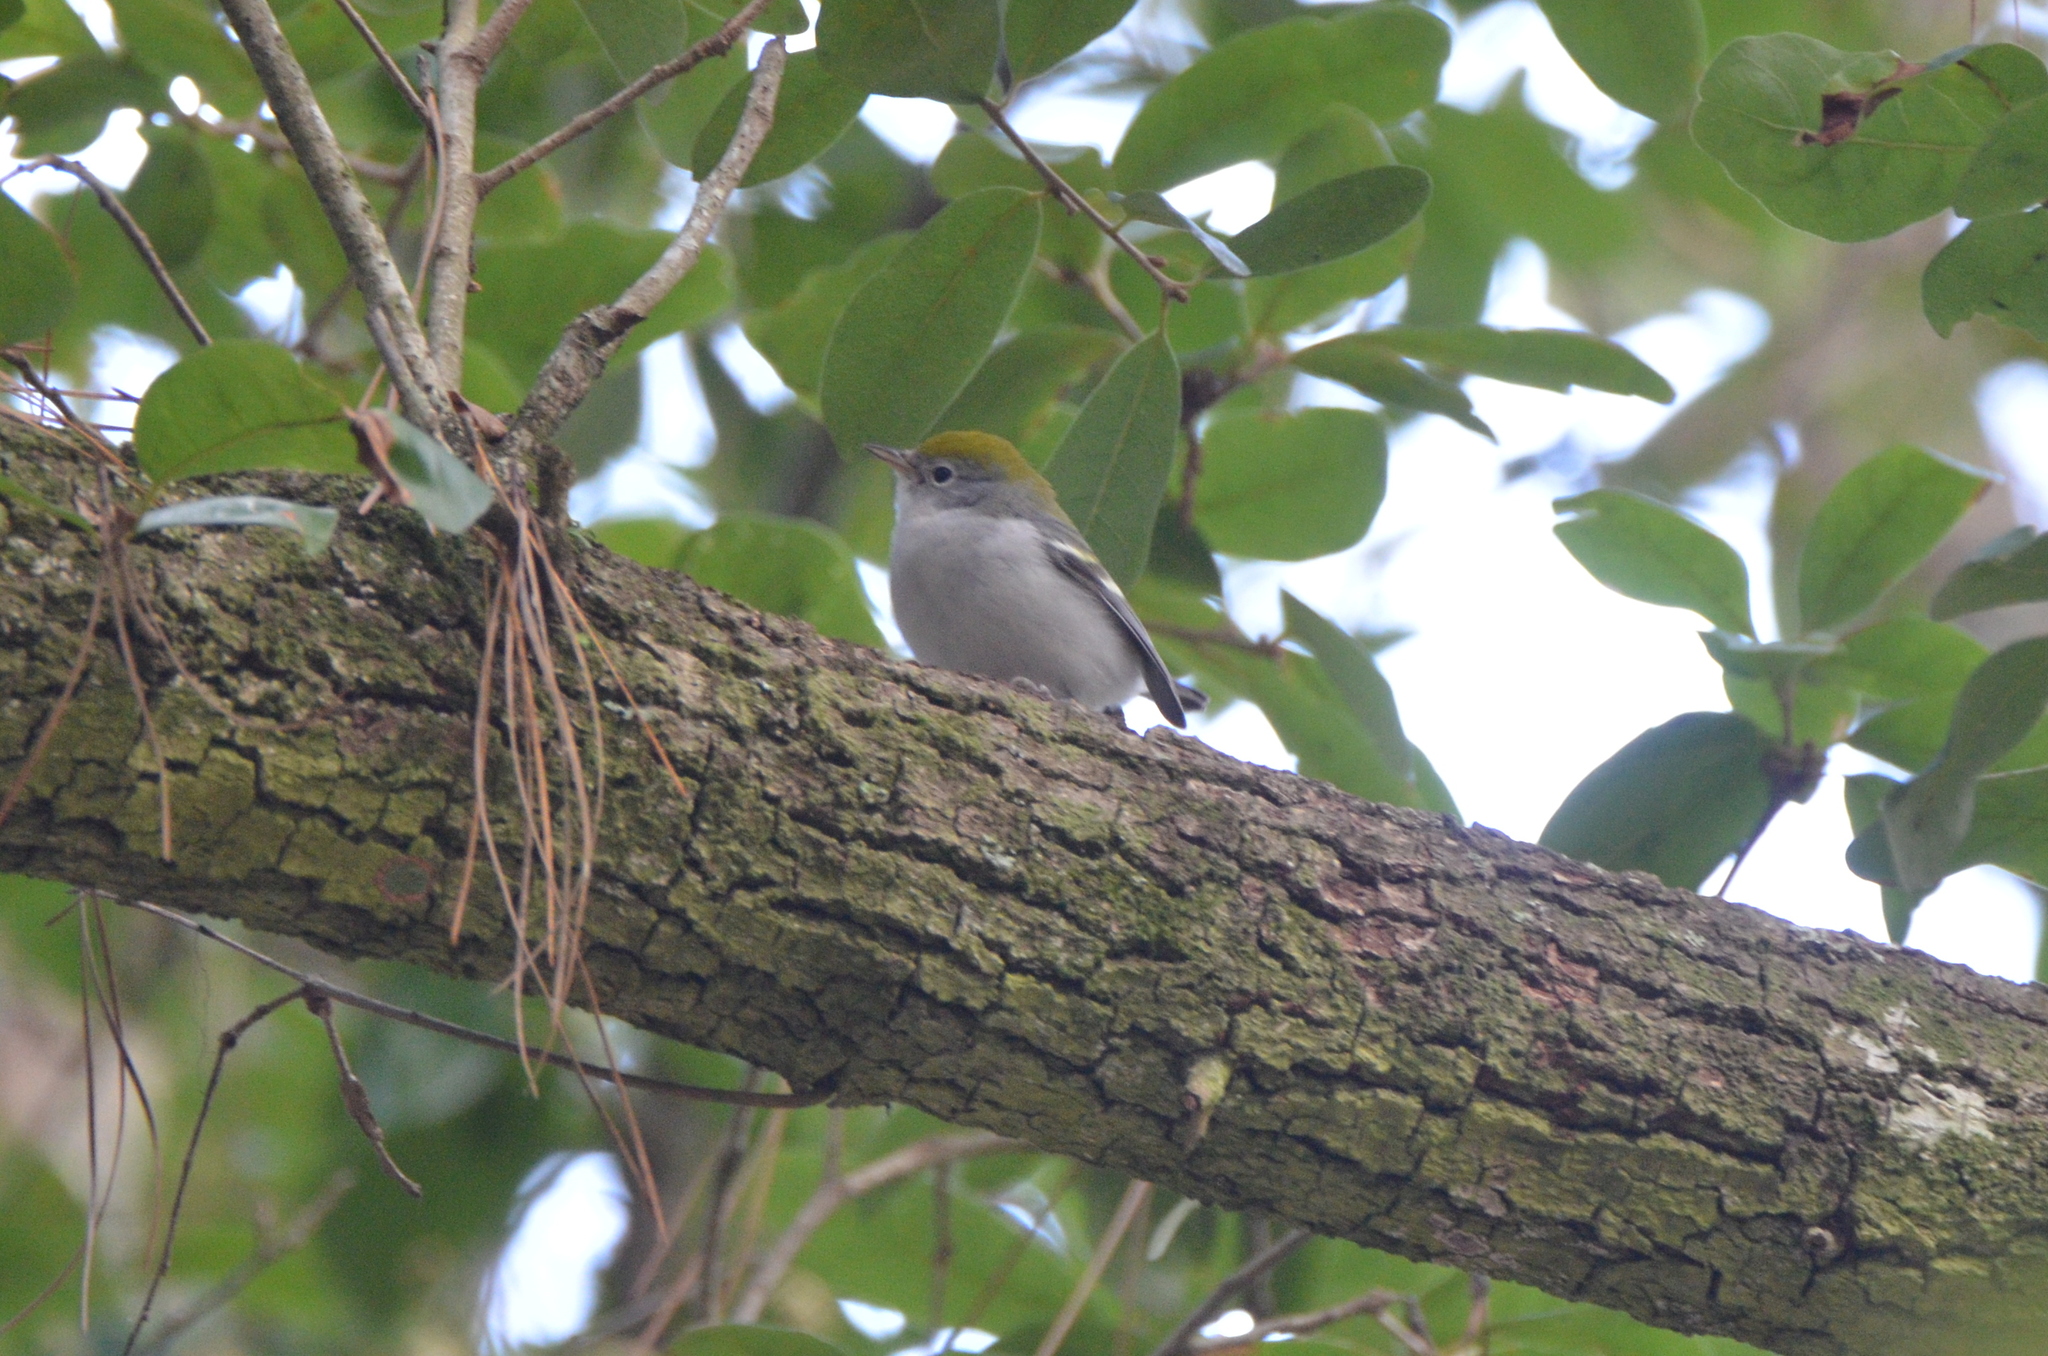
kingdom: Animalia
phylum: Chordata
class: Aves
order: Passeriformes
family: Parulidae
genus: Setophaga
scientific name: Setophaga pensylvanica
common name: Chestnut-sided warbler
